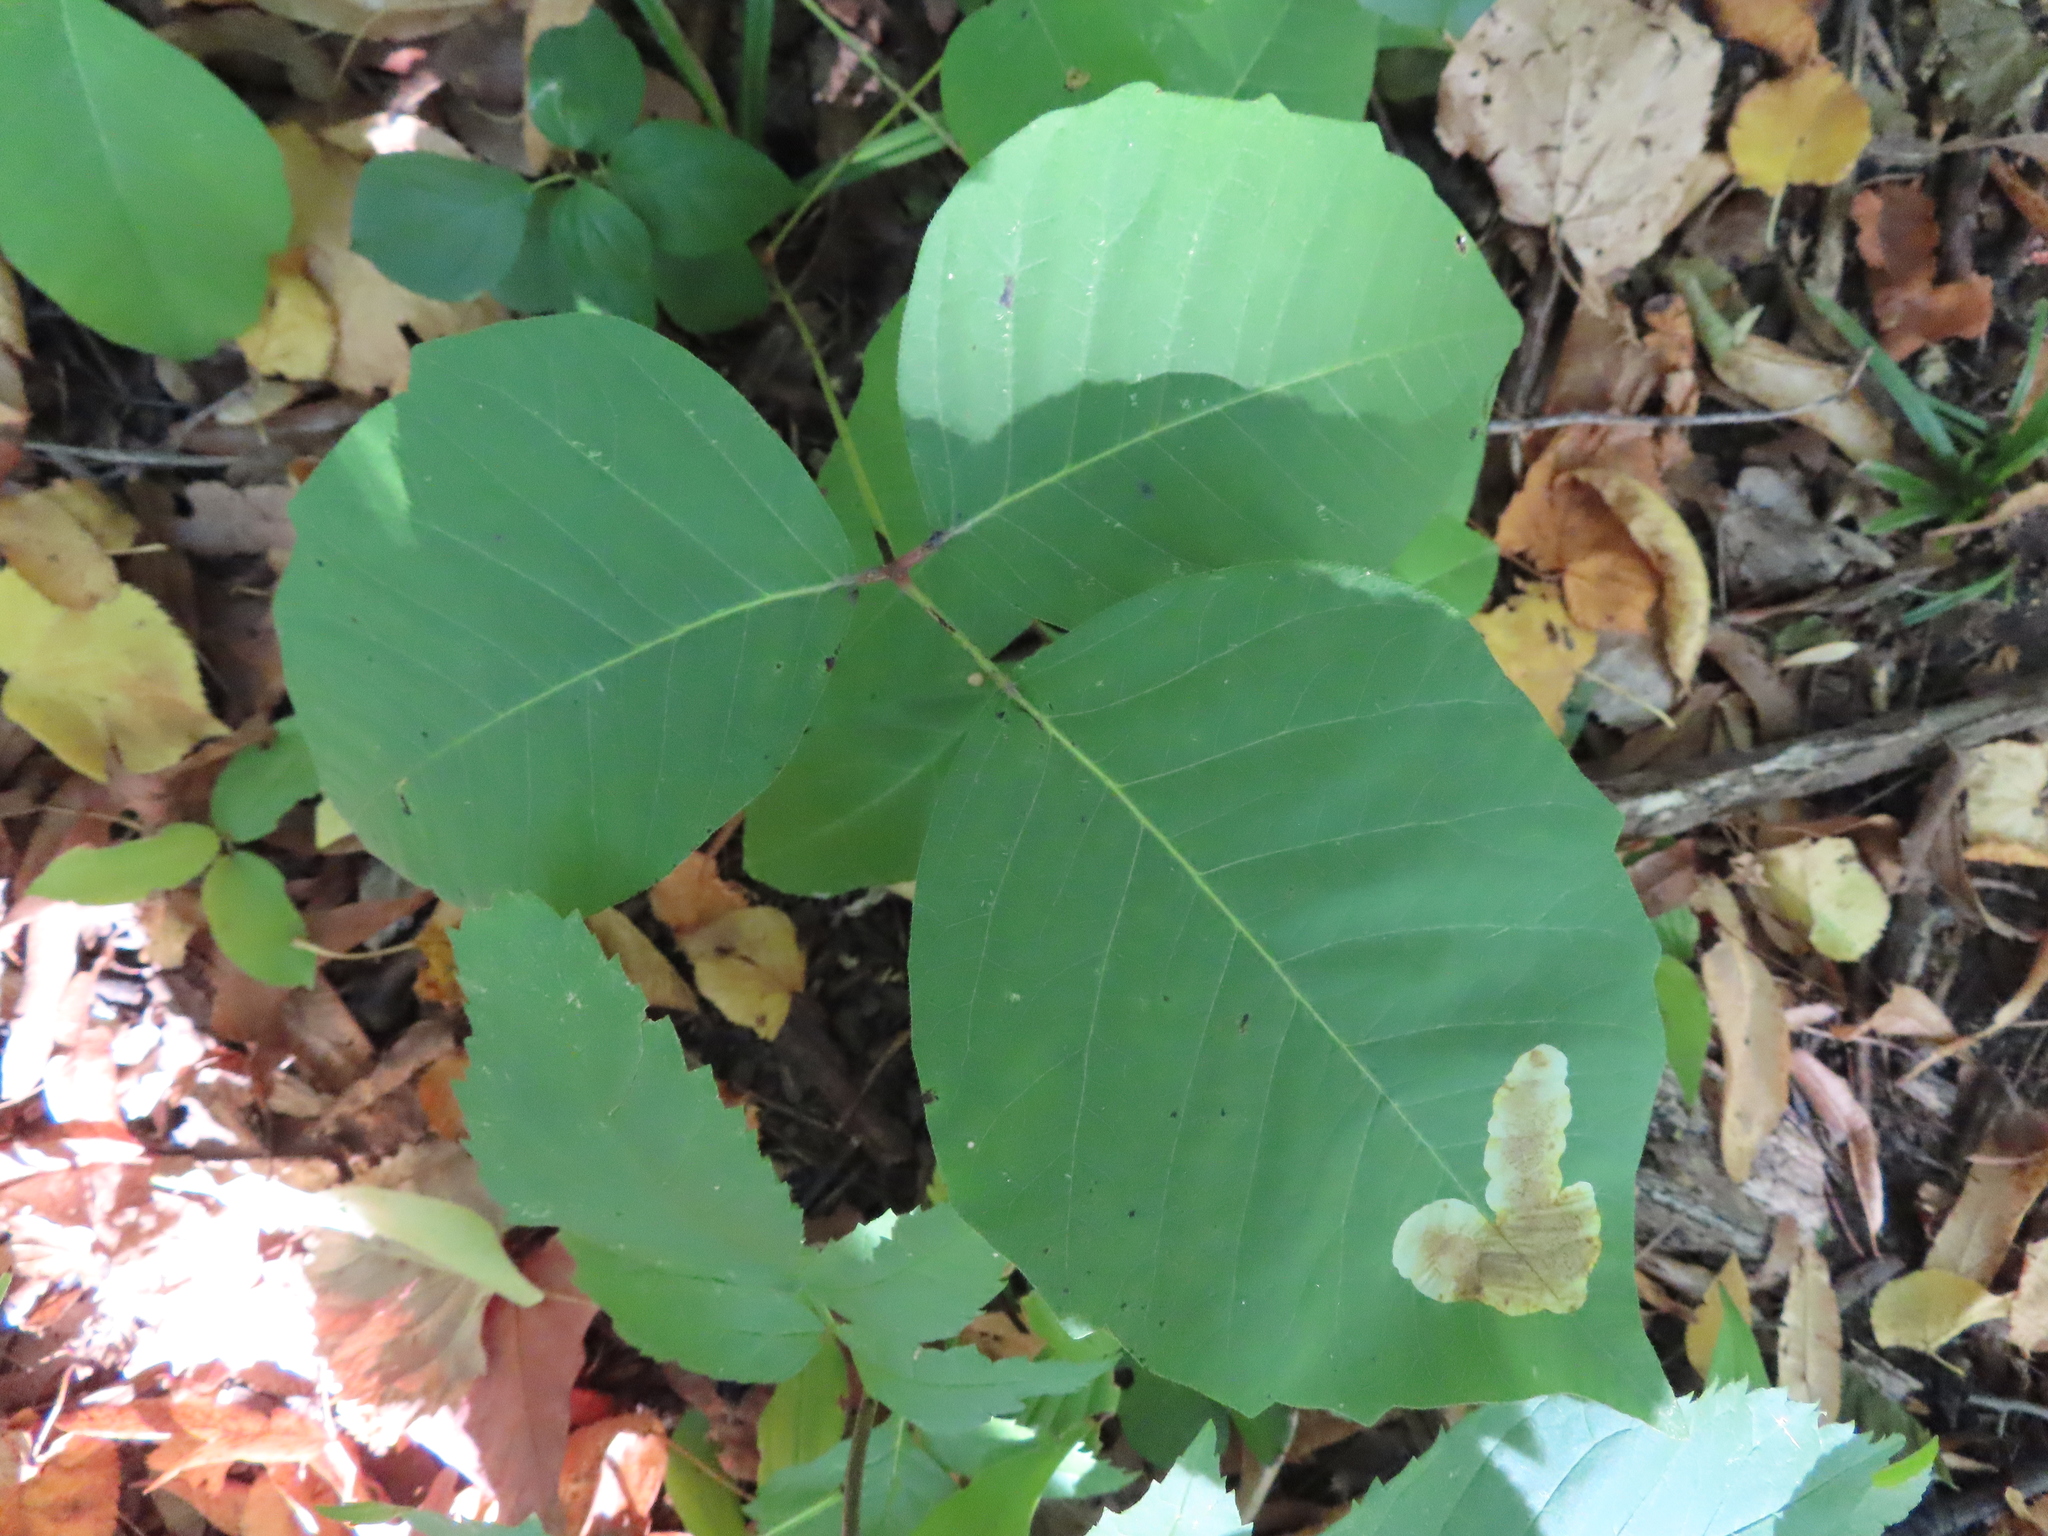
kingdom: Animalia
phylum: Arthropoda
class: Insecta
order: Lepidoptera
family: Gracillariidae
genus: Cameraria
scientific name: Cameraria guttifinitella
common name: Poison ivy leaf-miner moth
